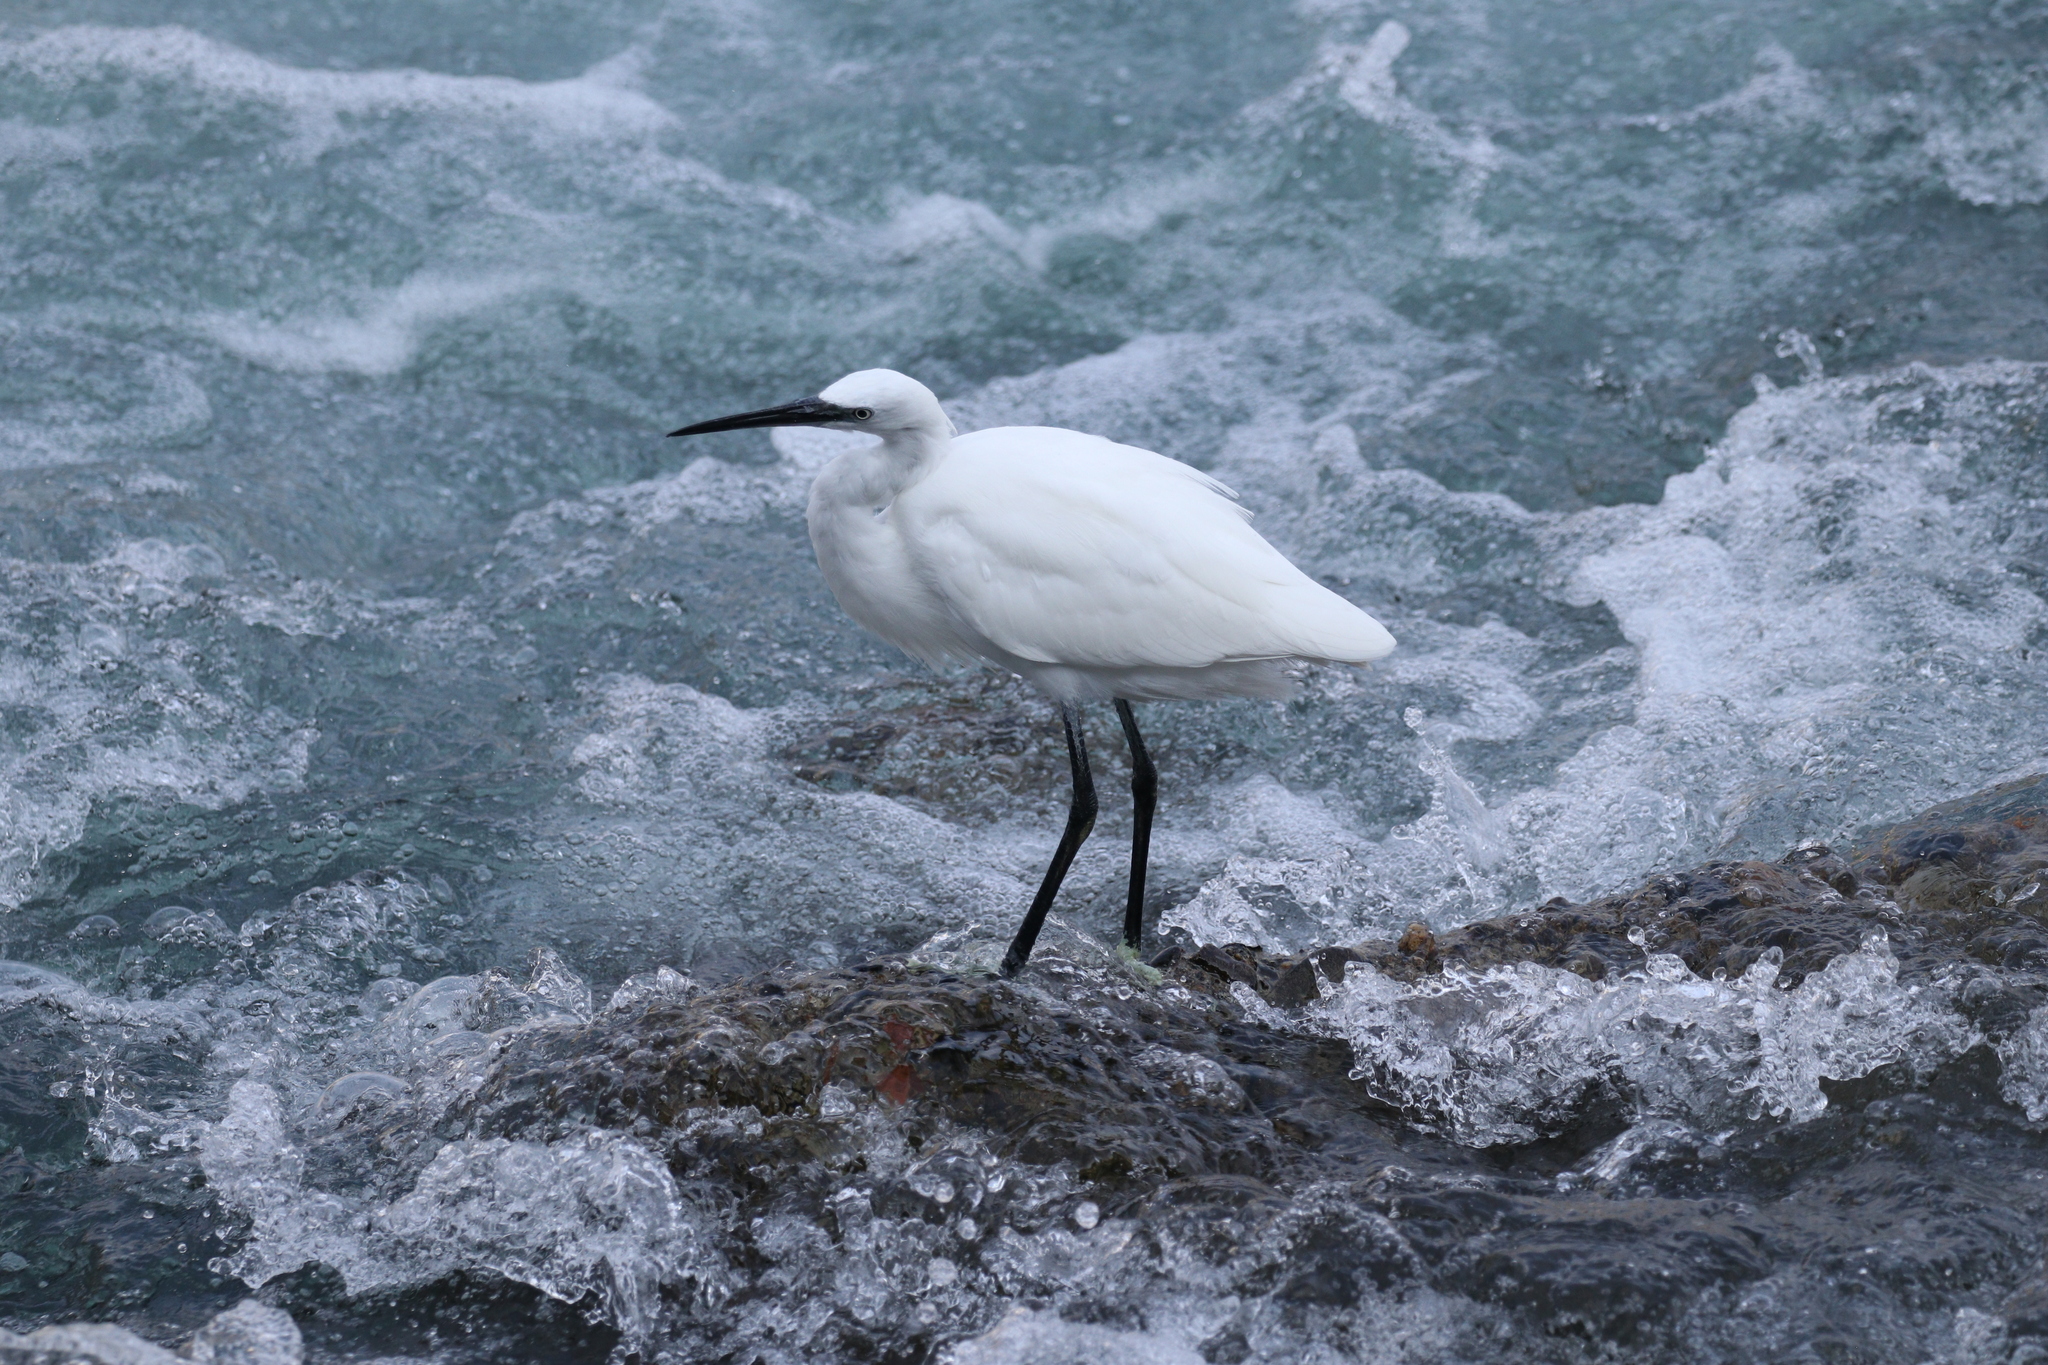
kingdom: Animalia
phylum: Chordata
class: Aves
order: Pelecaniformes
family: Ardeidae
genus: Egretta
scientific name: Egretta garzetta
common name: Little egret
